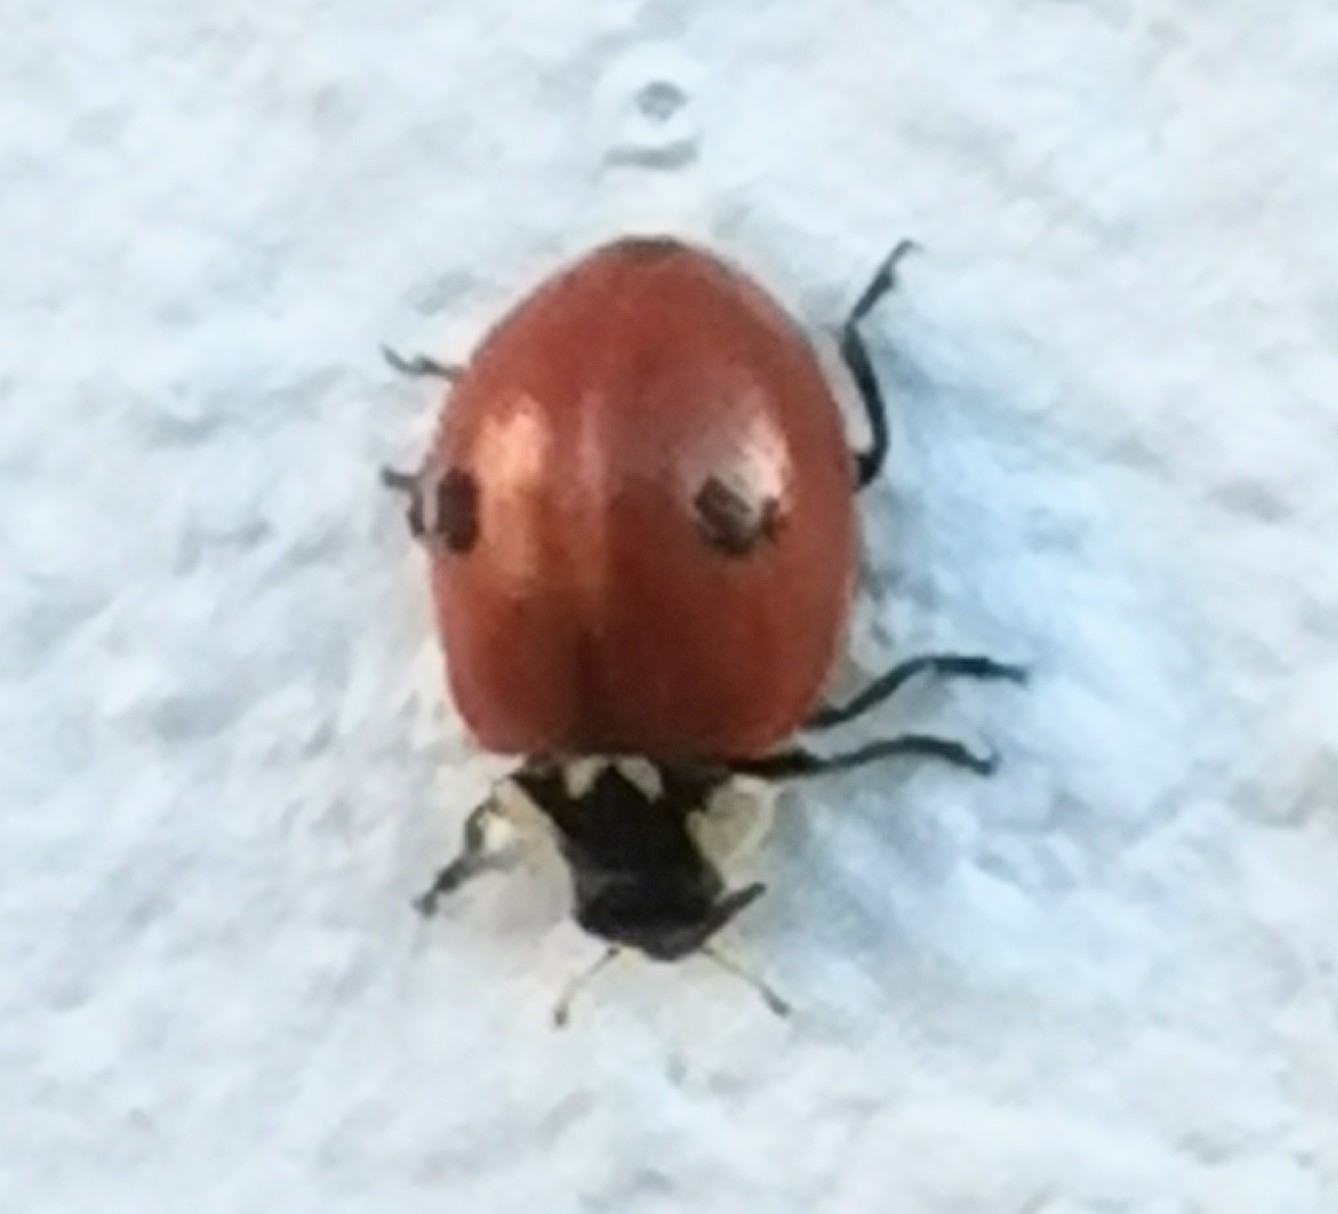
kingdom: Animalia
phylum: Arthropoda
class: Insecta
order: Coleoptera
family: Coccinellidae
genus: Adalia
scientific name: Adalia bipunctata
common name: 2-spot ladybird
